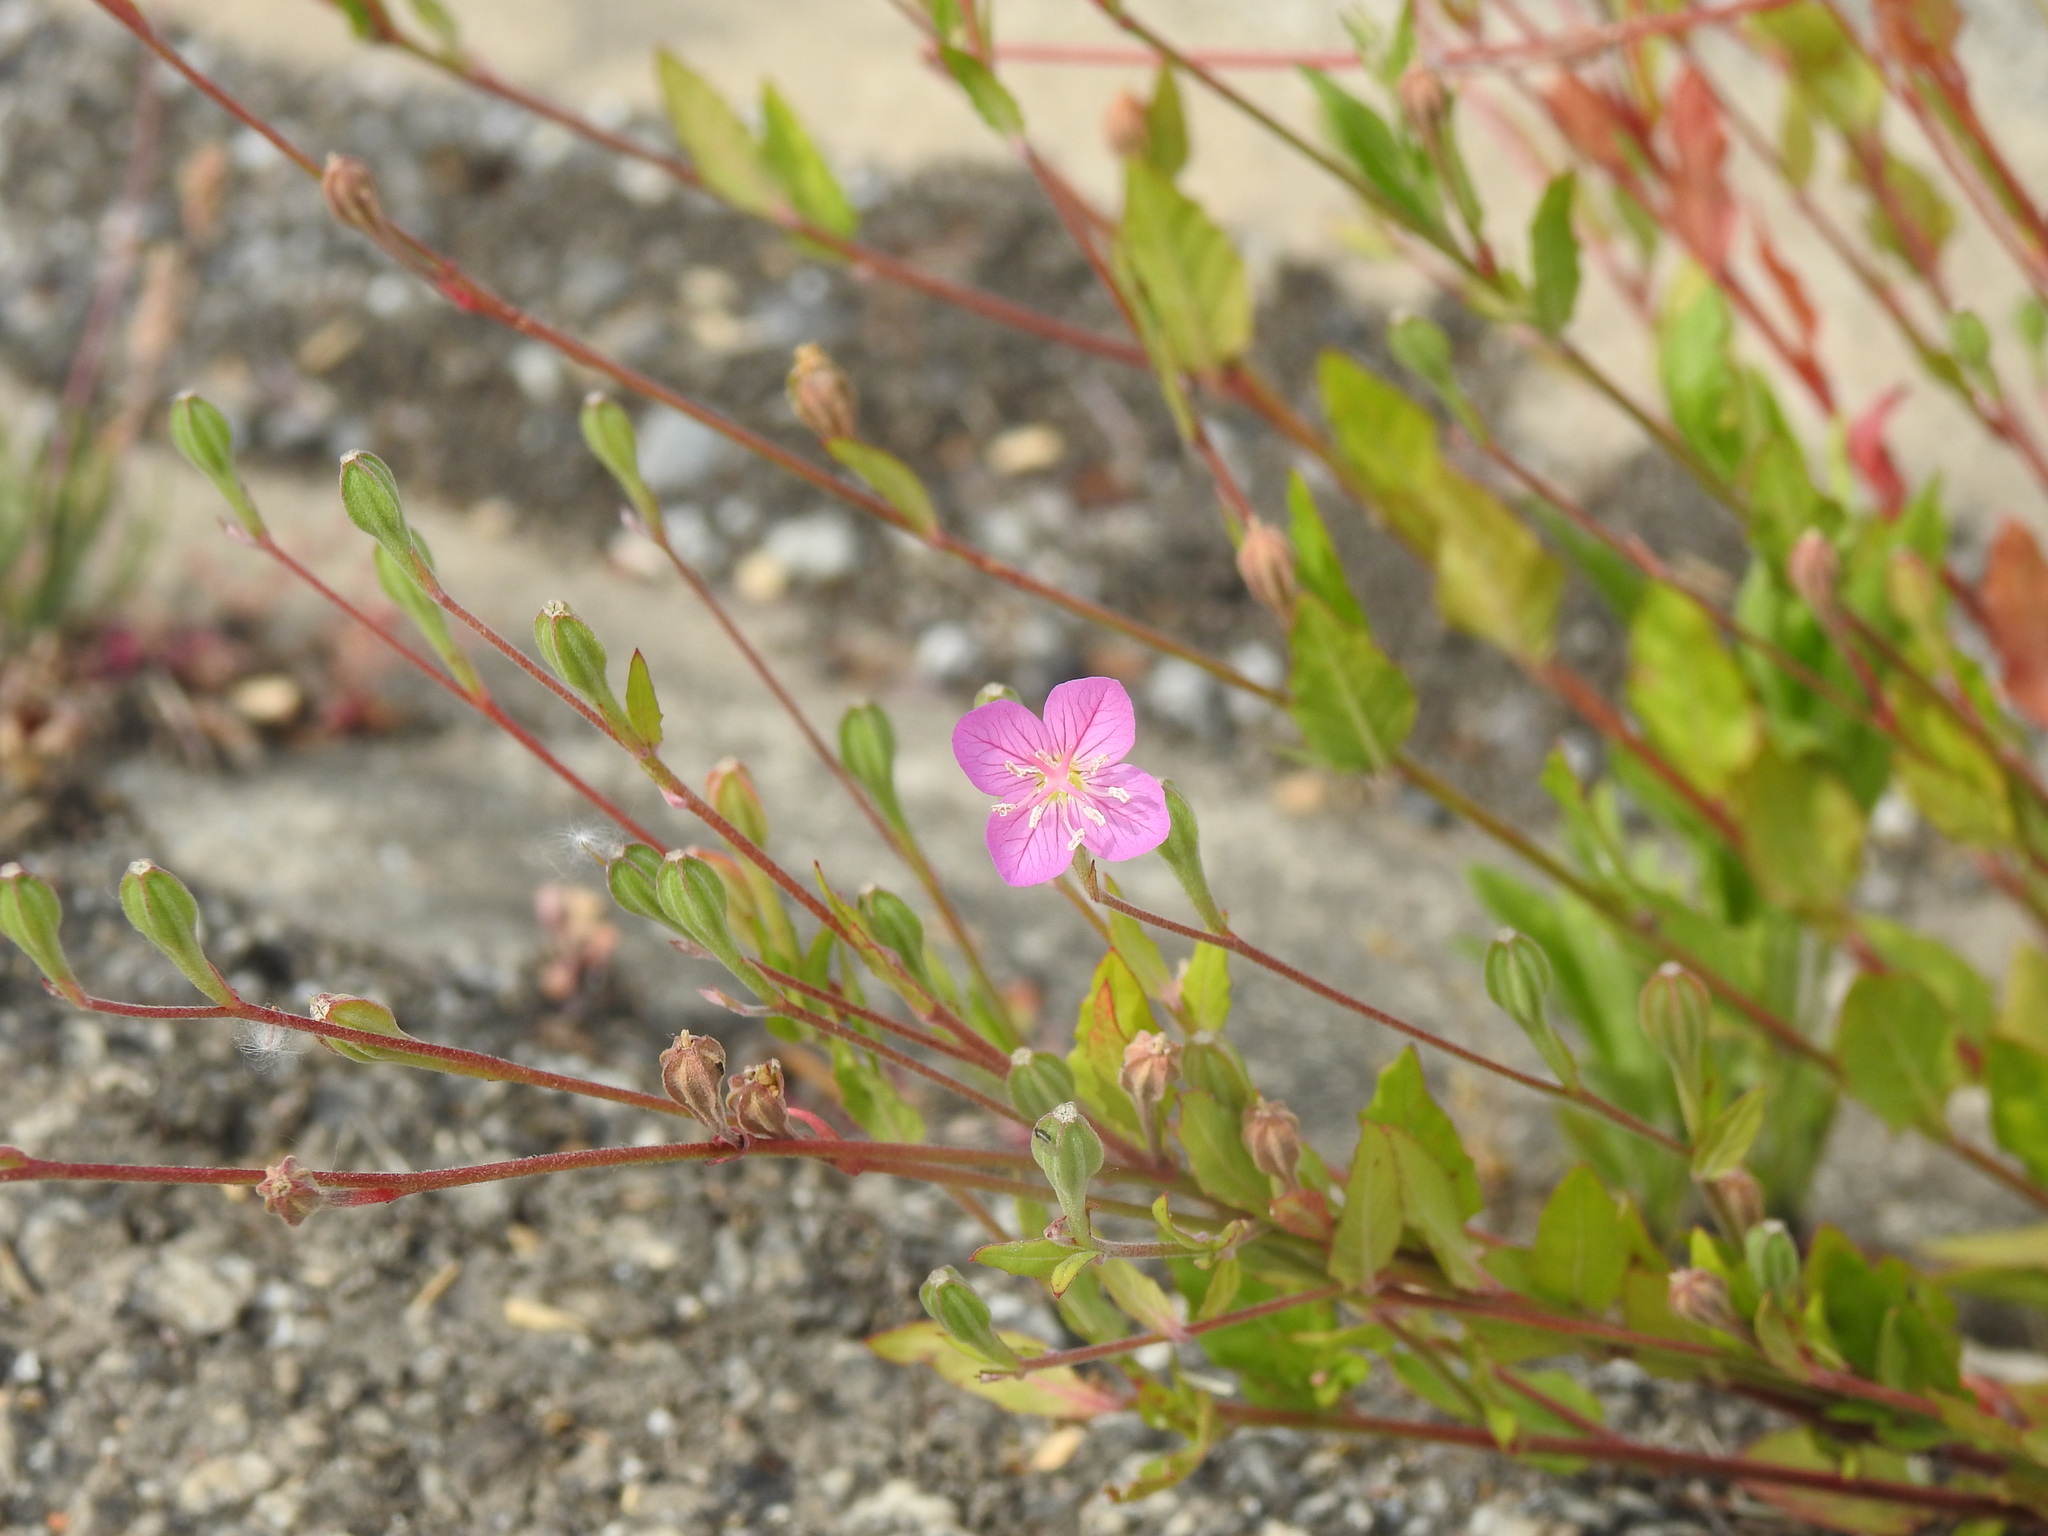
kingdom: Plantae
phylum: Tracheophyta
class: Magnoliopsida
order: Myrtales
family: Onagraceae
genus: Oenothera
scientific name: Oenothera rosea
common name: Rosy evening-primrose
